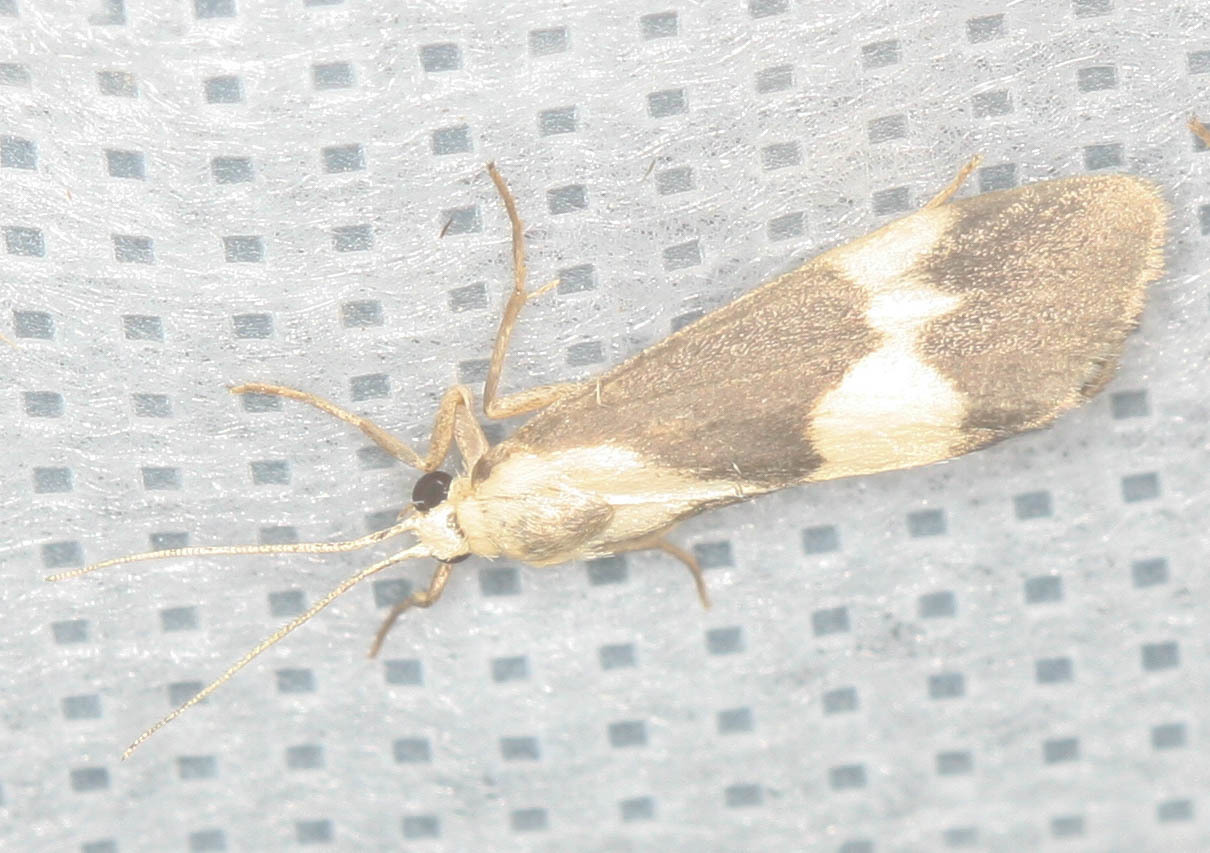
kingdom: Animalia
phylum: Arthropoda
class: Insecta
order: Lepidoptera
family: Erebidae
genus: Cisthene
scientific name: Cisthene faustinula
